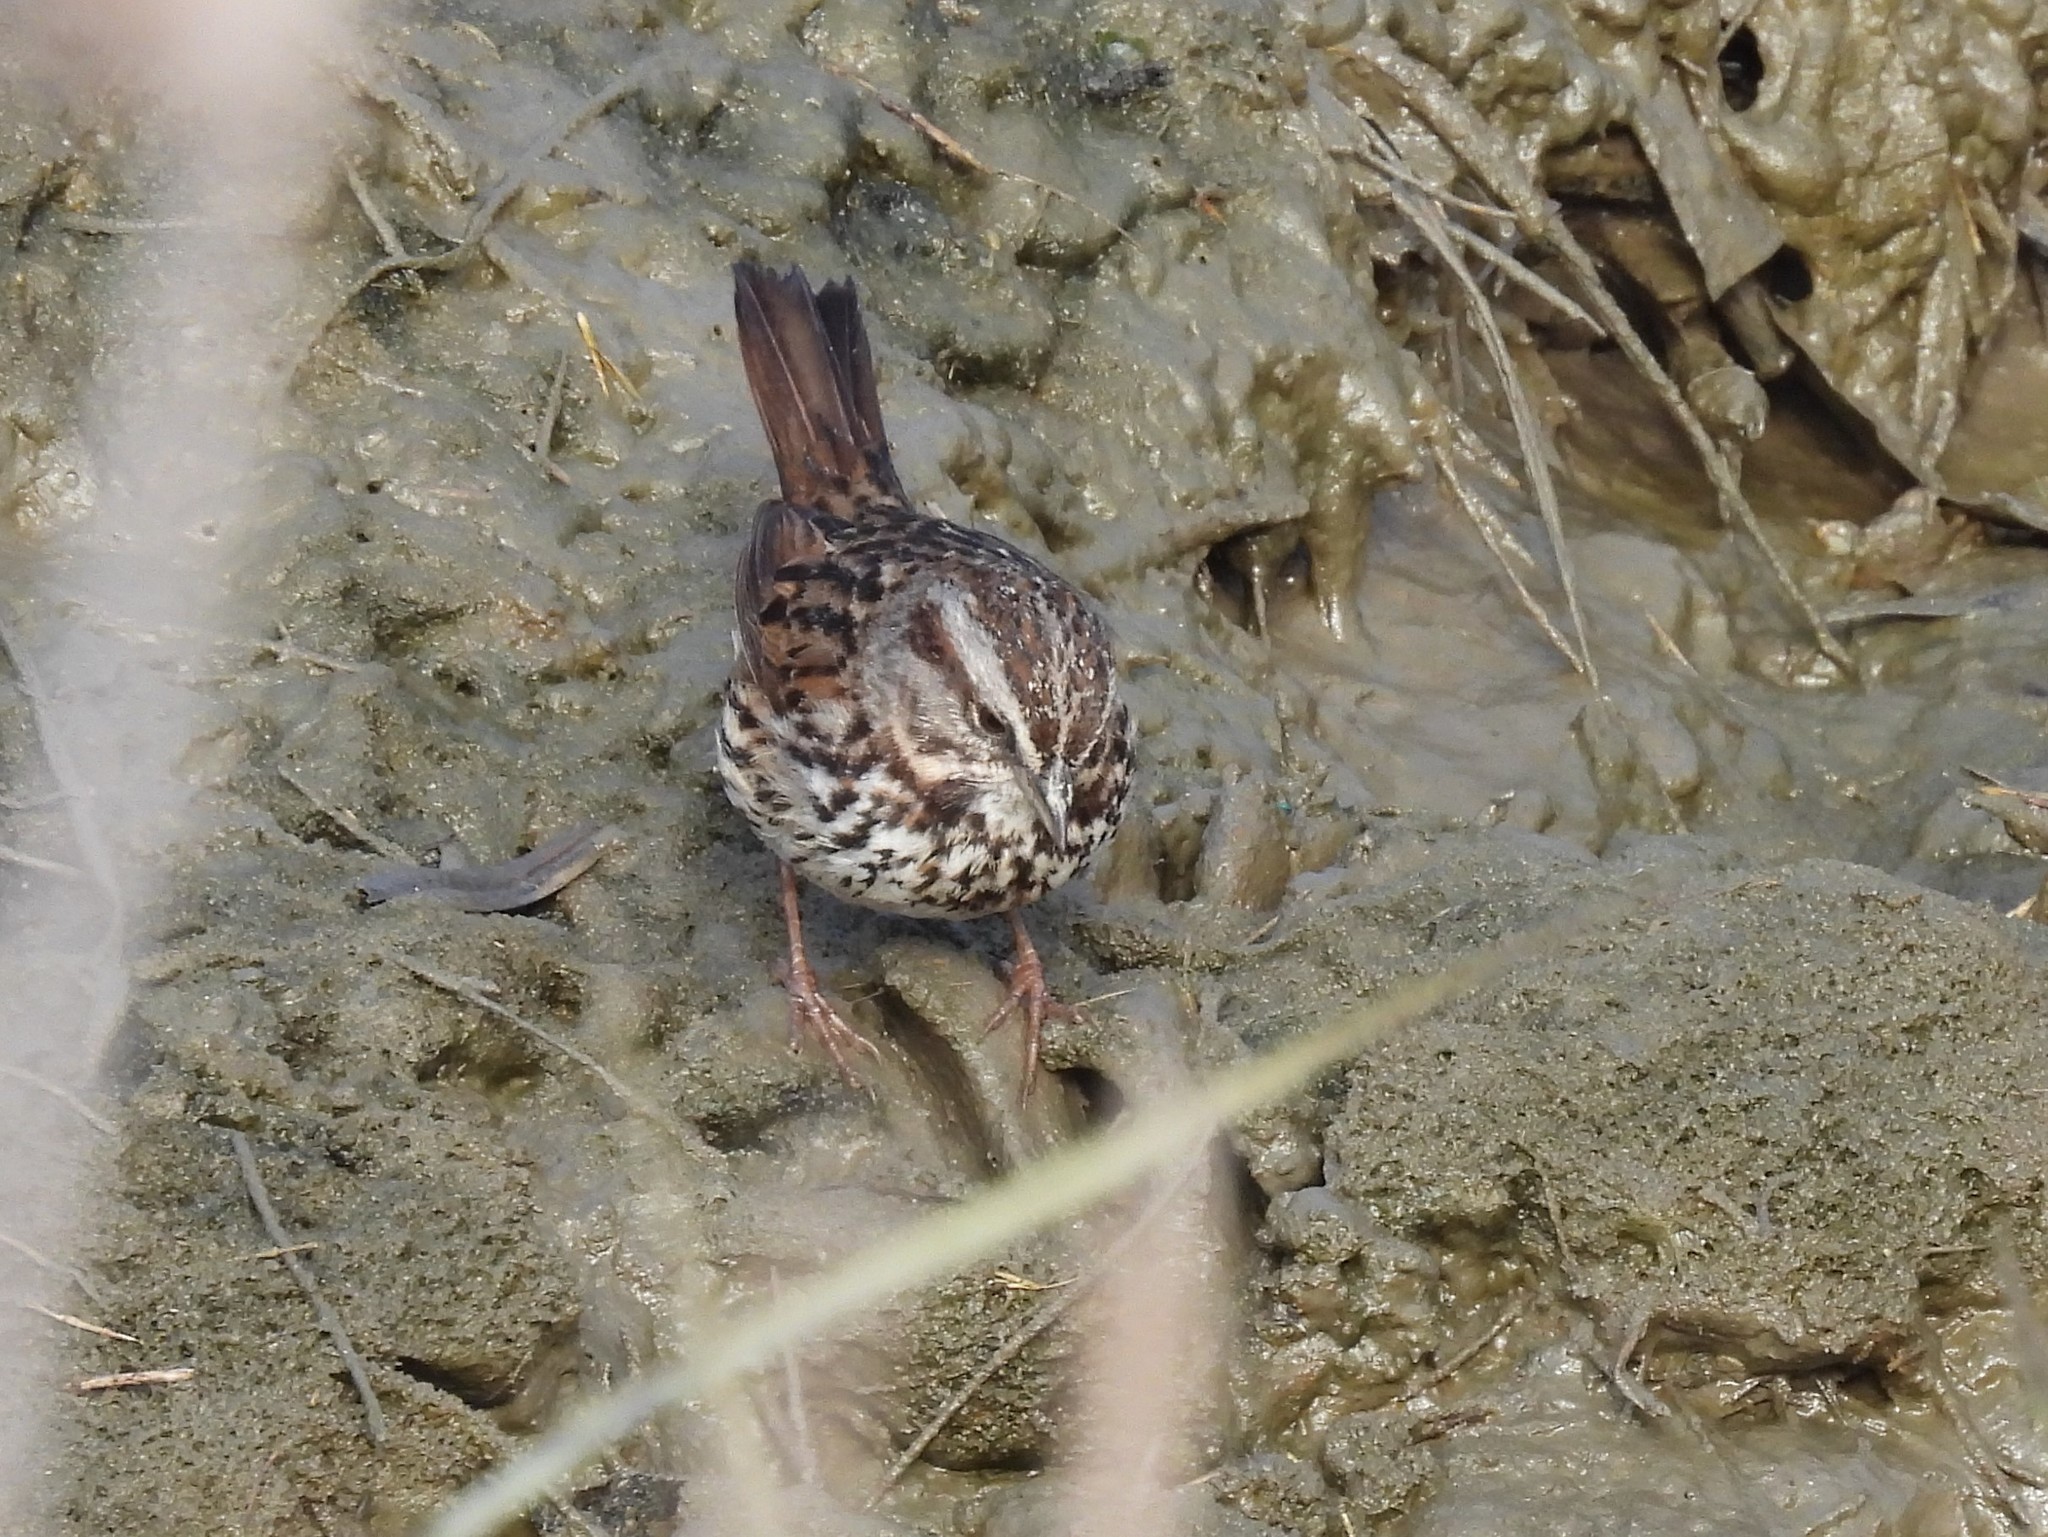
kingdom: Animalia
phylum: Chordata
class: Aves
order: Passeriformes
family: Passerellidae
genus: Melospiza
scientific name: Melospiza melodia
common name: Song sparrow
